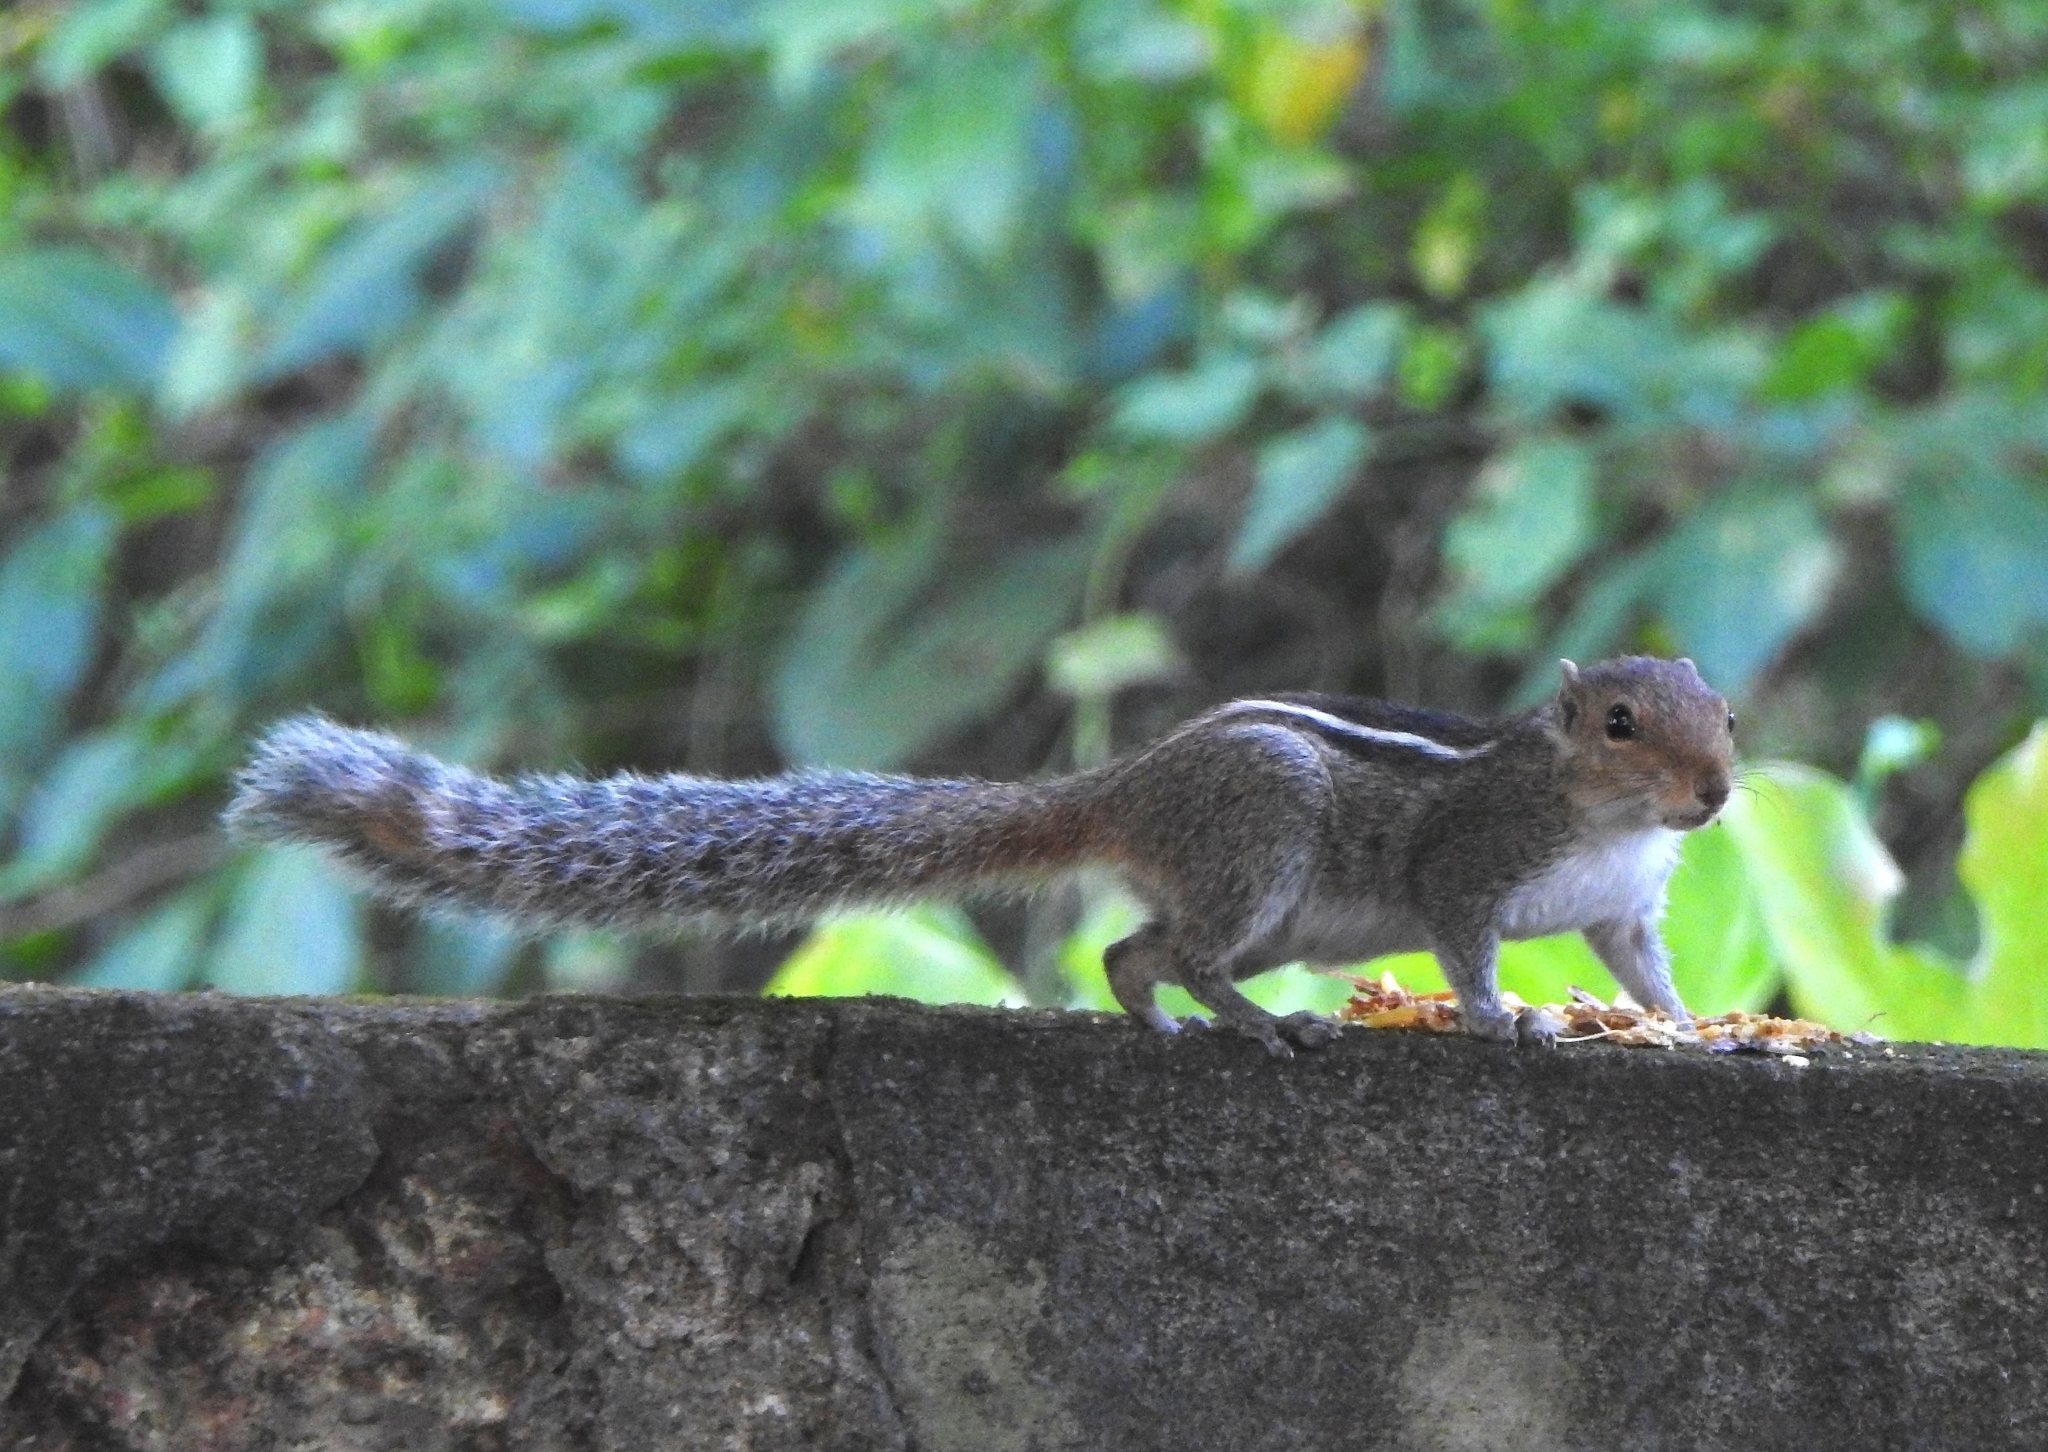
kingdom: Animalia
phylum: Chordata
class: Mammalia
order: Rodentia
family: Sciuridae
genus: Funambulus
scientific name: Funambulus tristriatus
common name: Jungle palm squirrel
